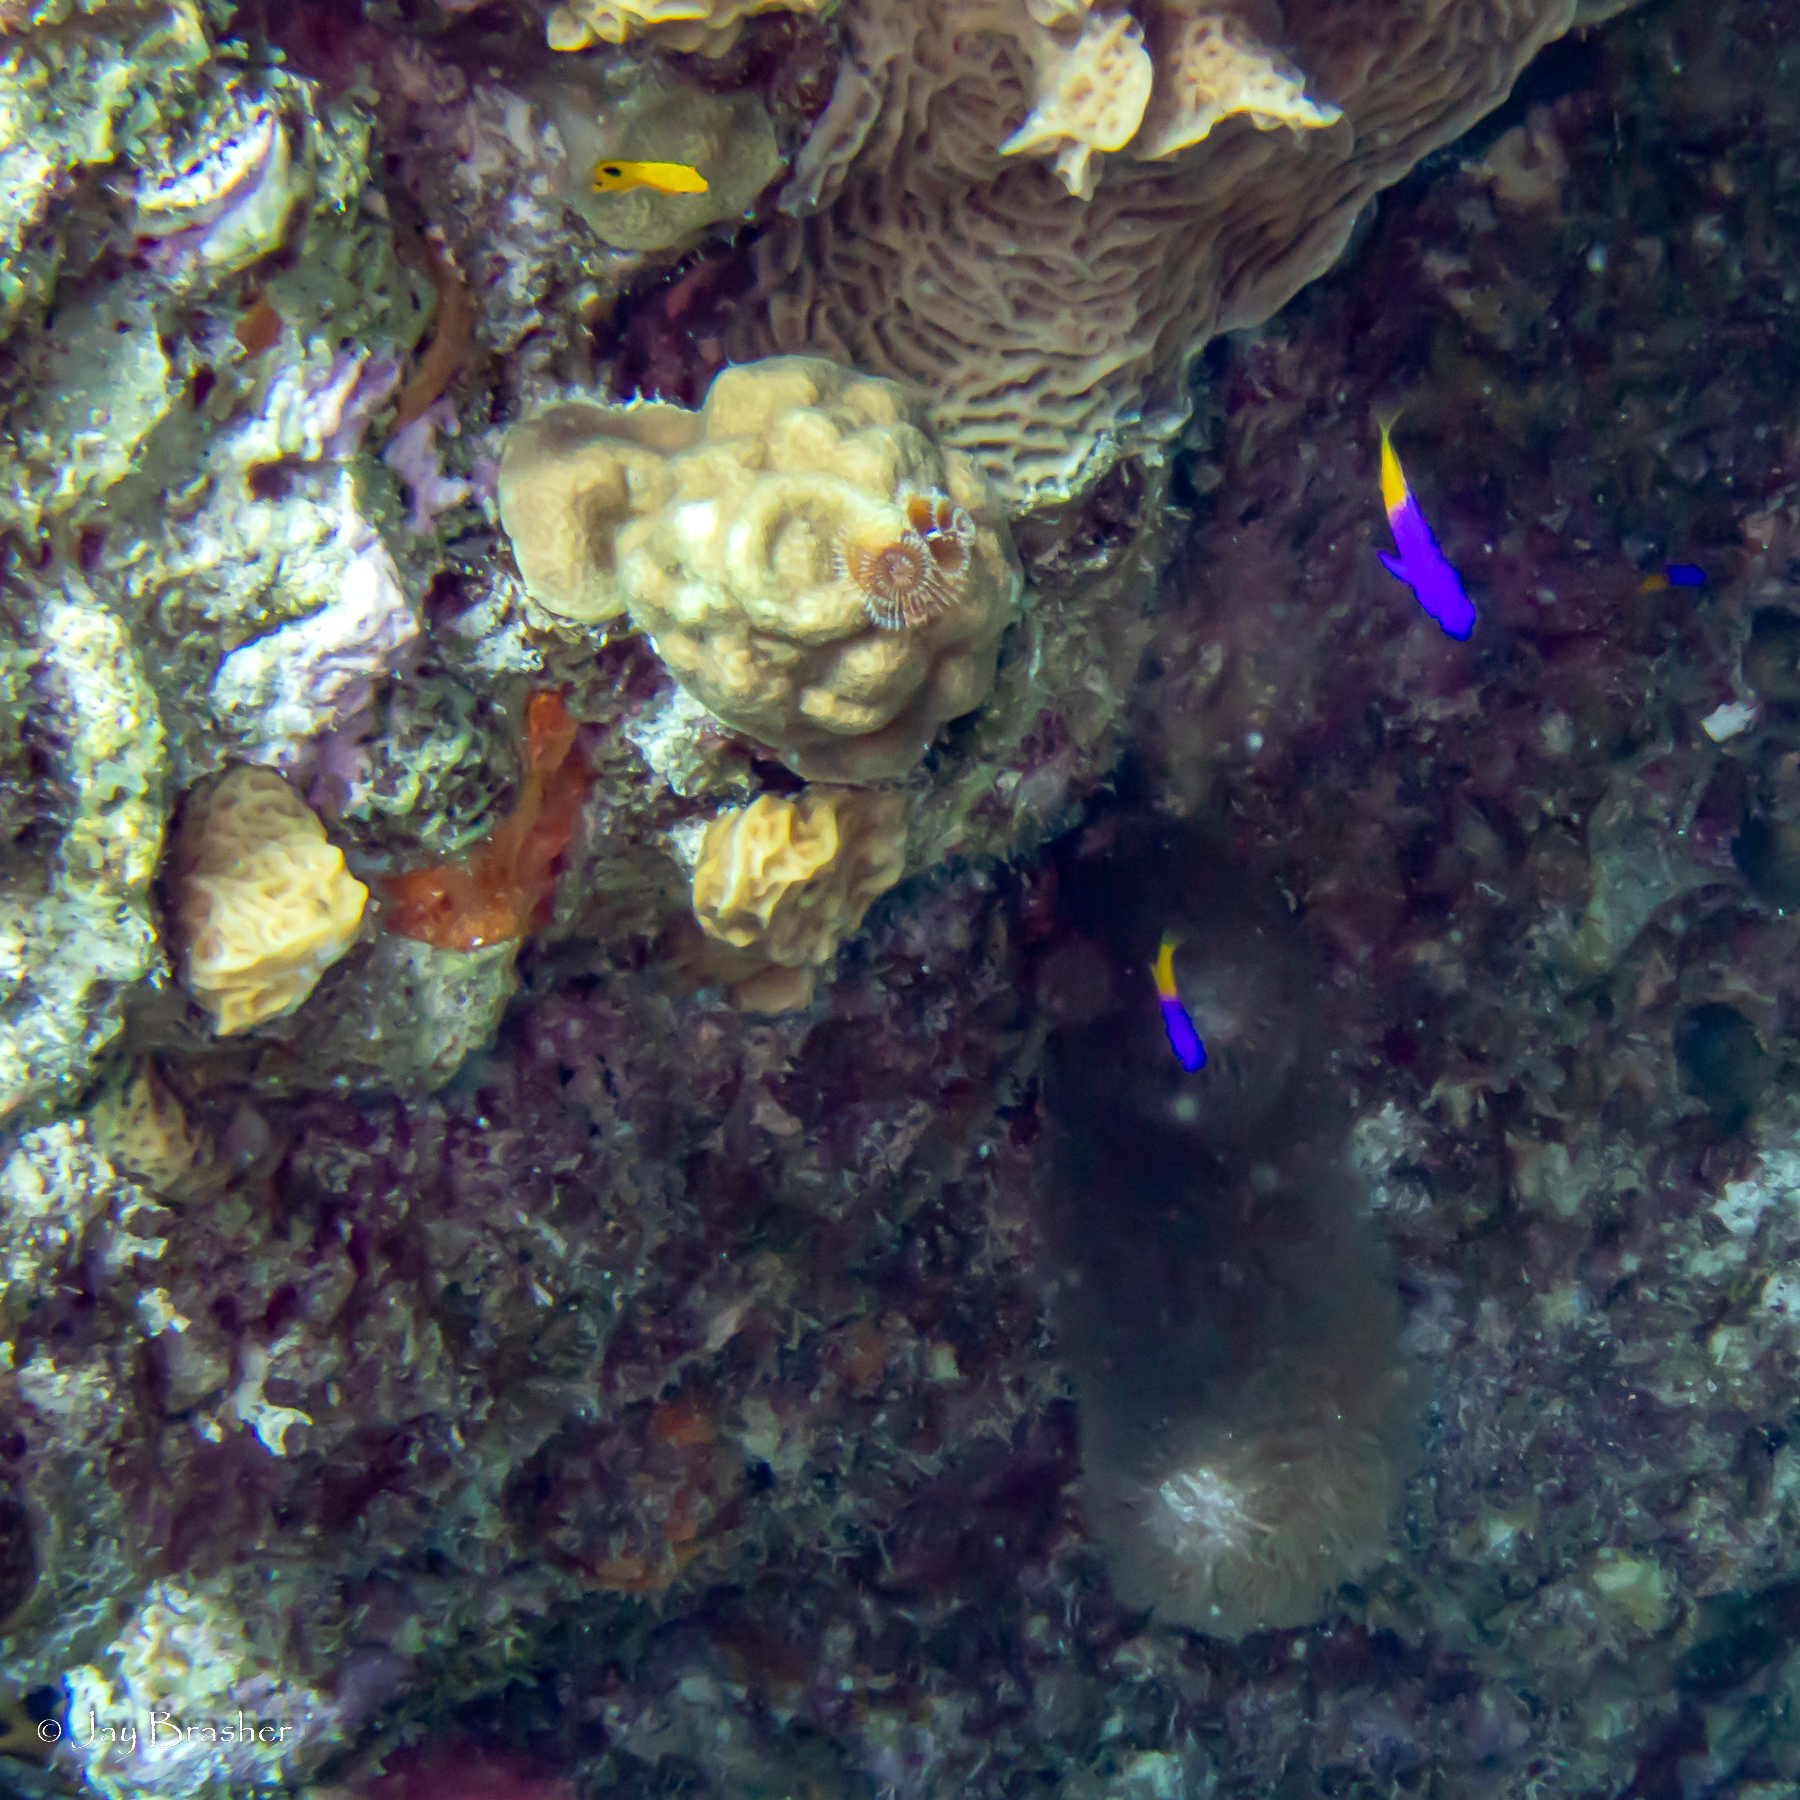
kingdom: Animalia
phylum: Chordata
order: Perciformes
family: Grammatidae
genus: Gramma
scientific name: Gramma loreto
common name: Fairy basslet
